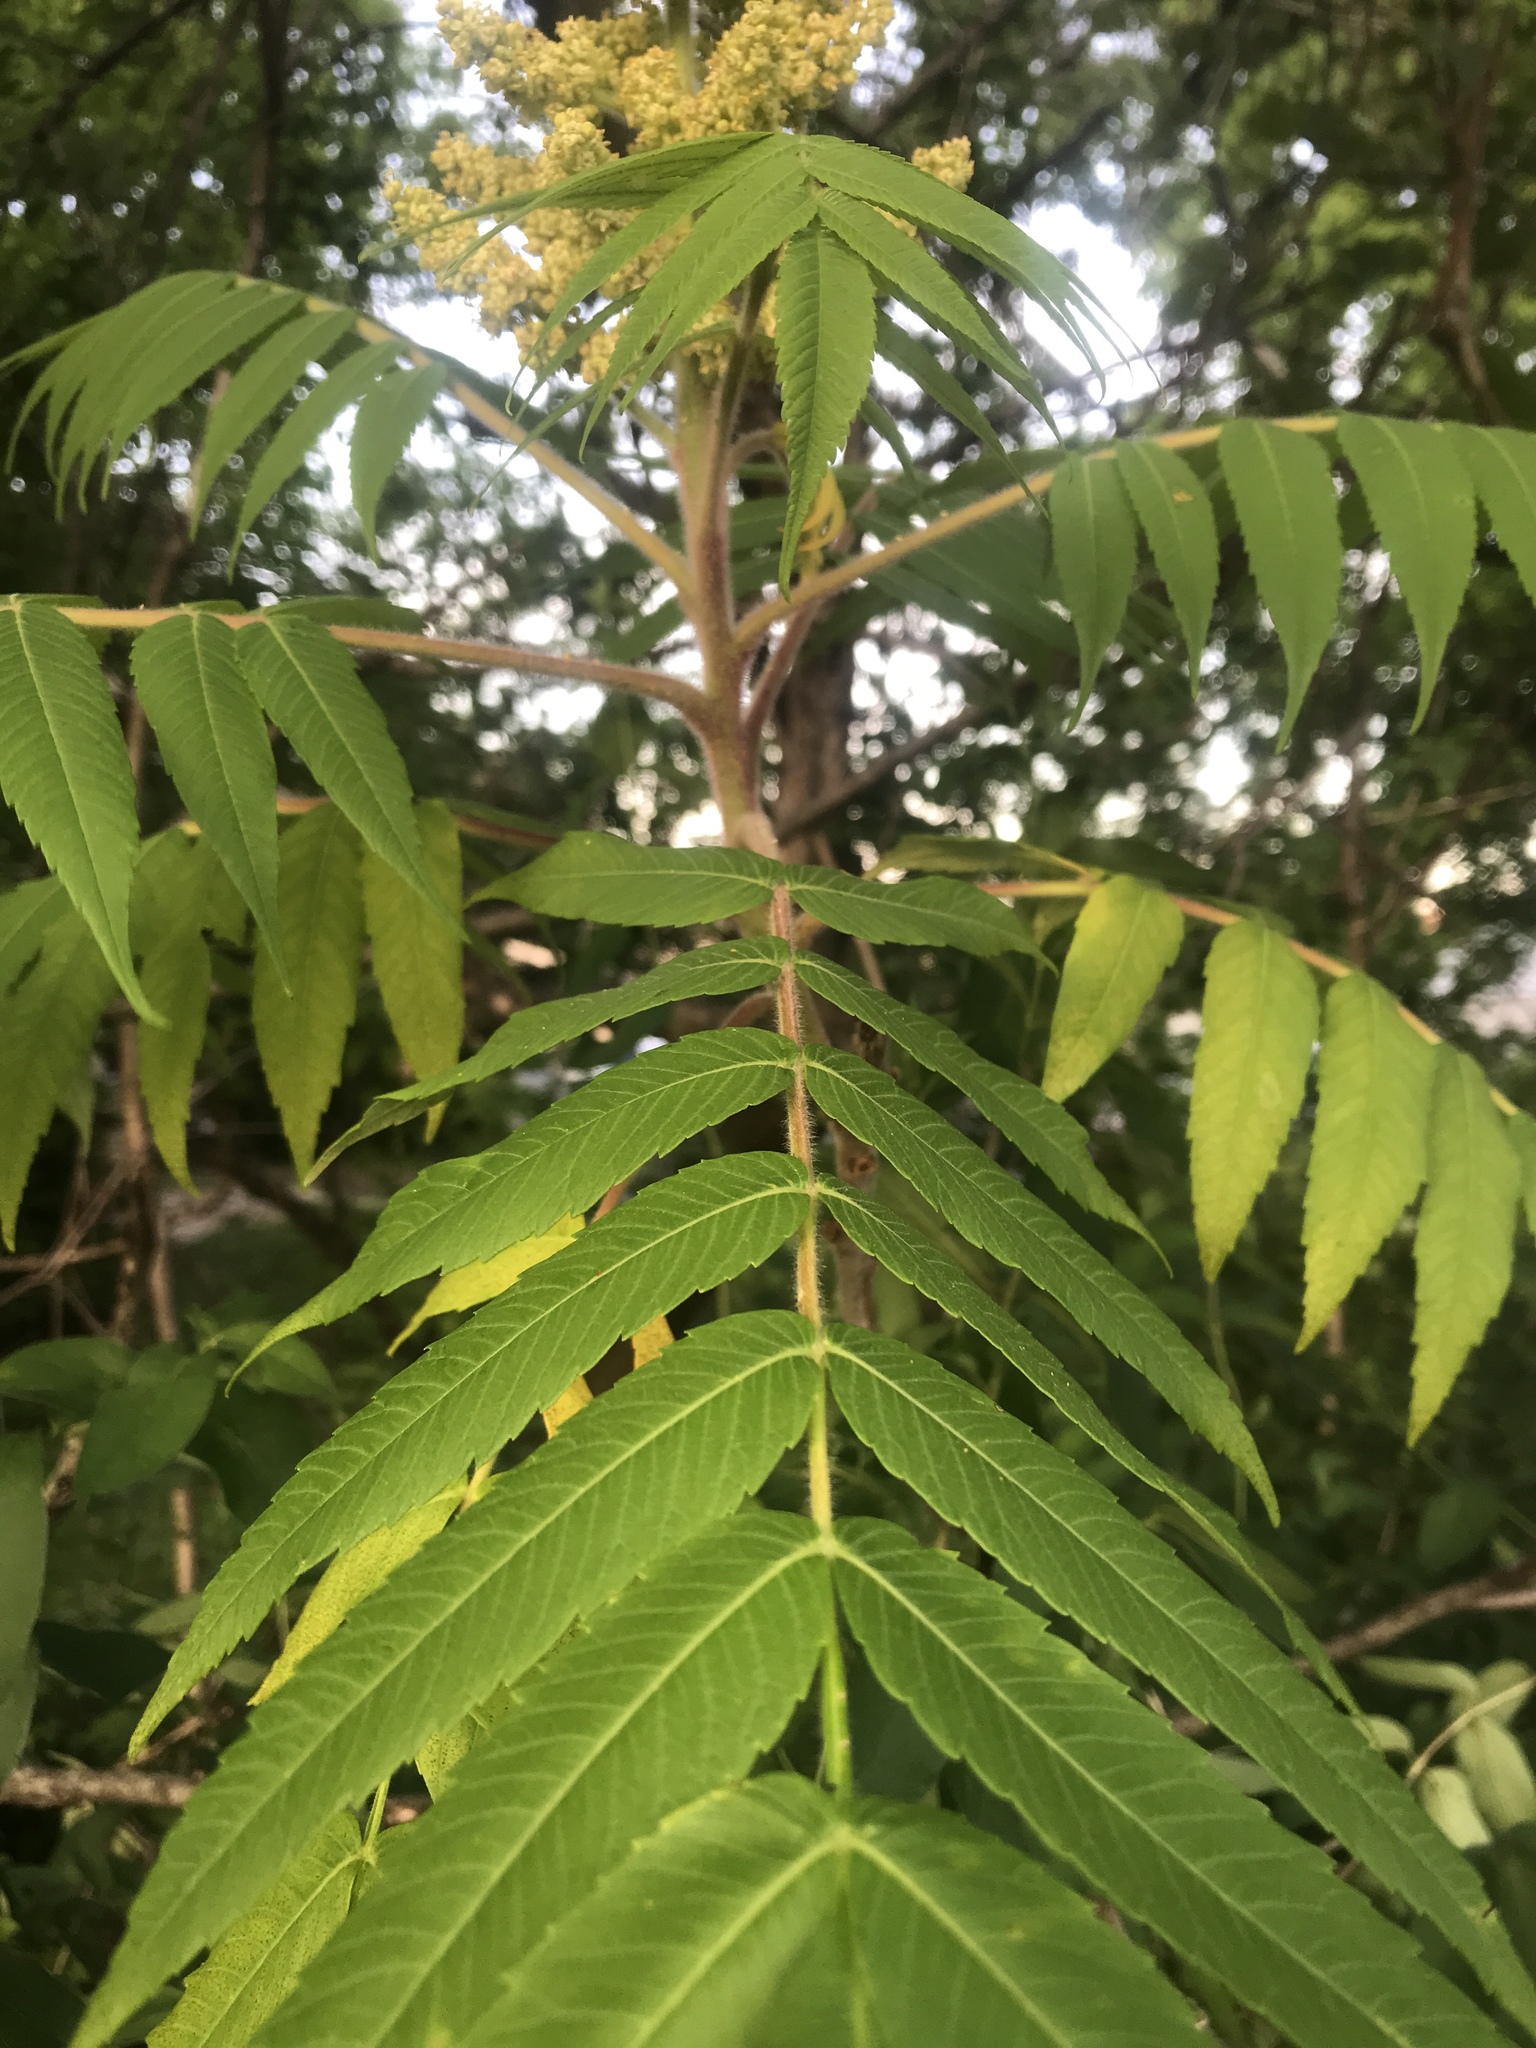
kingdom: Plantae
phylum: Tracheophyta
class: Magnoliopsida
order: Sapindales
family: Anacardiaceae
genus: Rhus
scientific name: Rhus typhina
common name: Staghorn sumac
